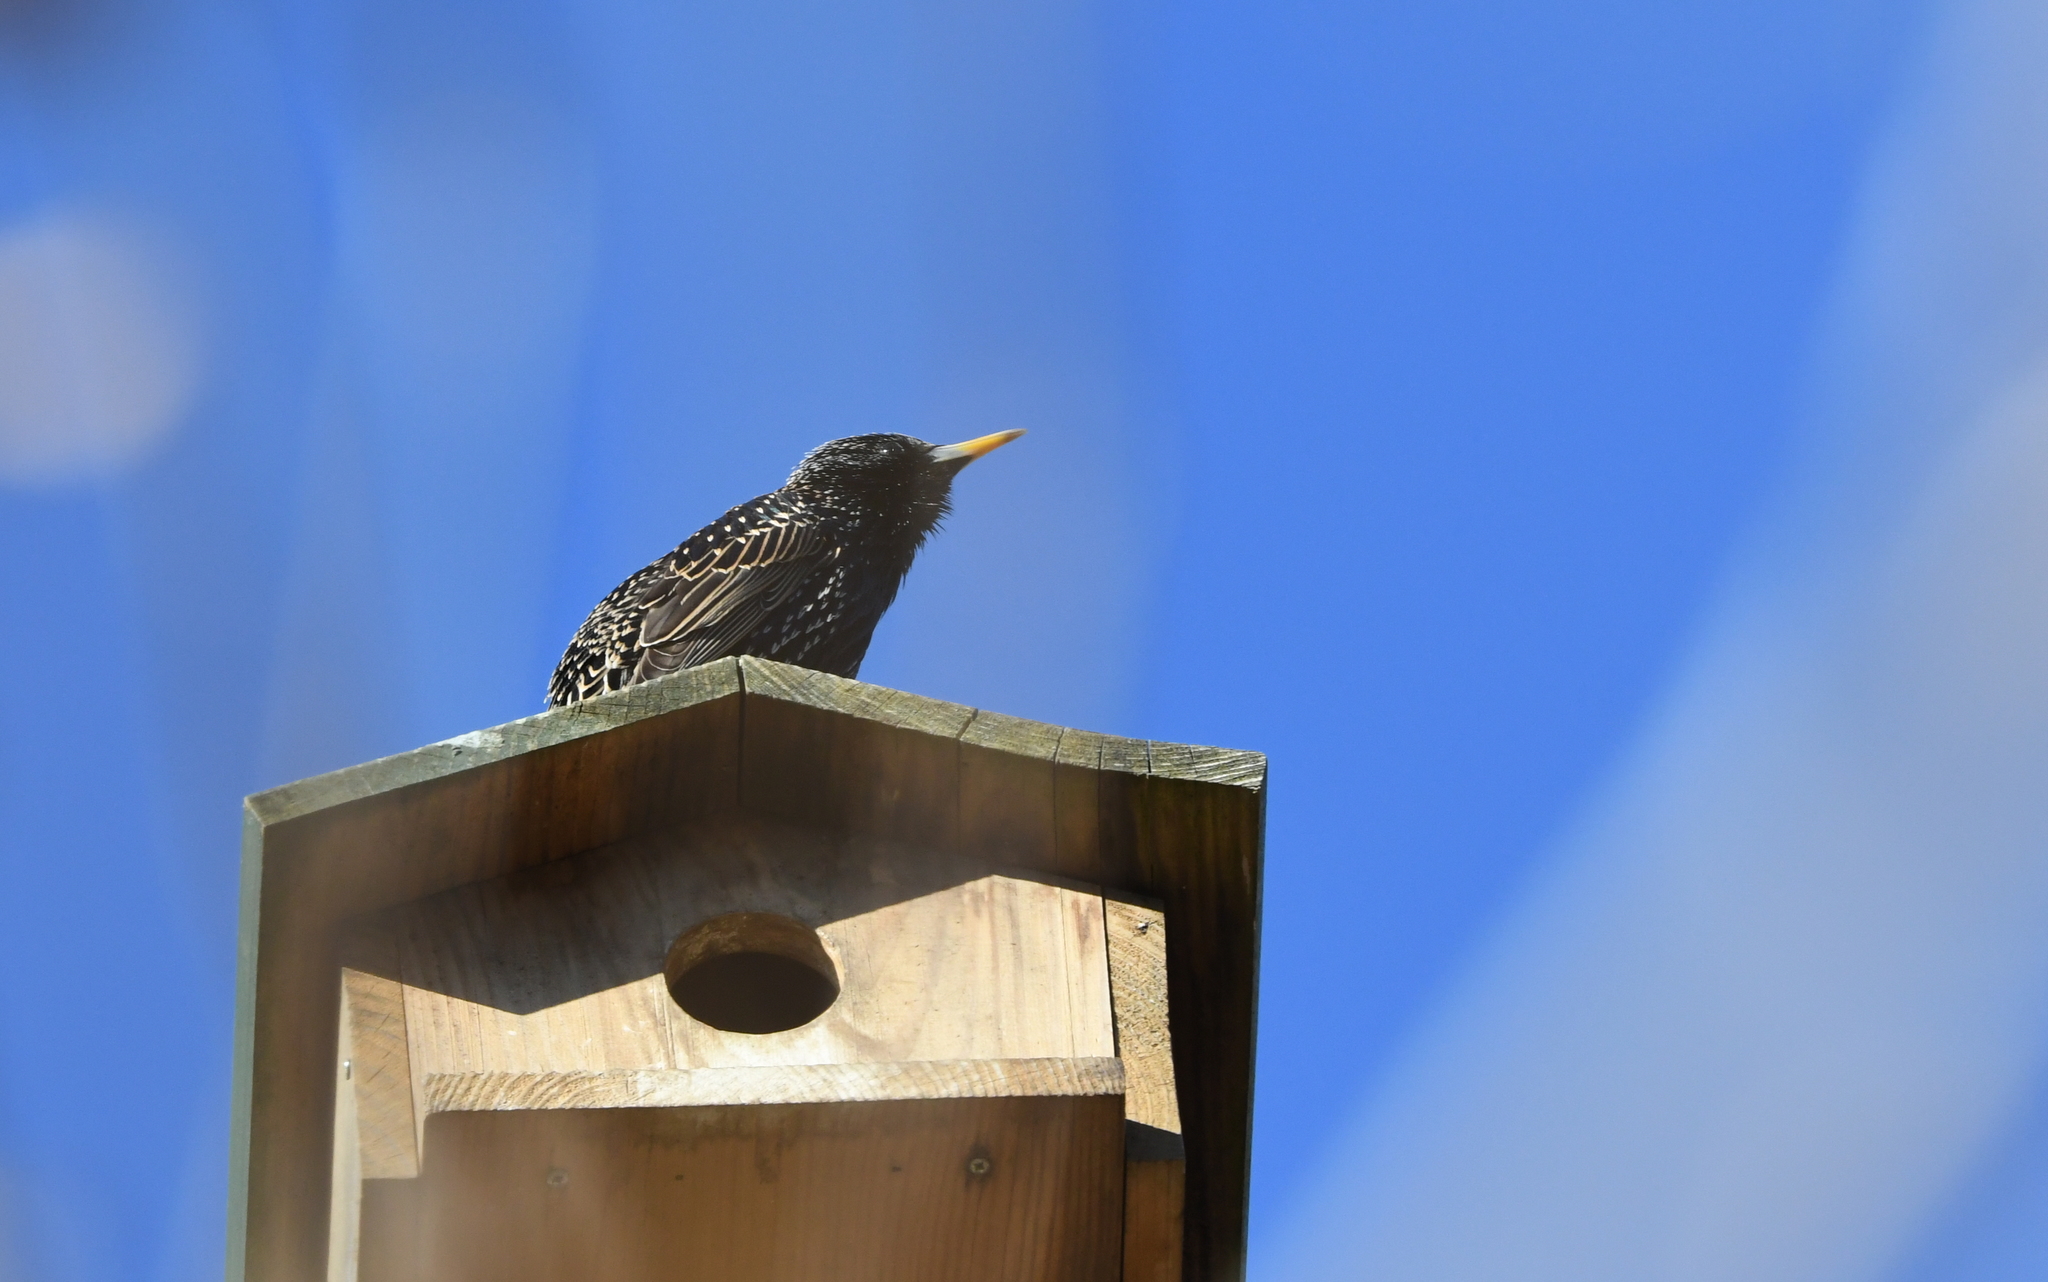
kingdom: Animalia
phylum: Chordata
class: Aves
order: Passeriformes
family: Sturnidae
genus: Sturnus
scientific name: Sturnus vulgaris
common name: Common starling
